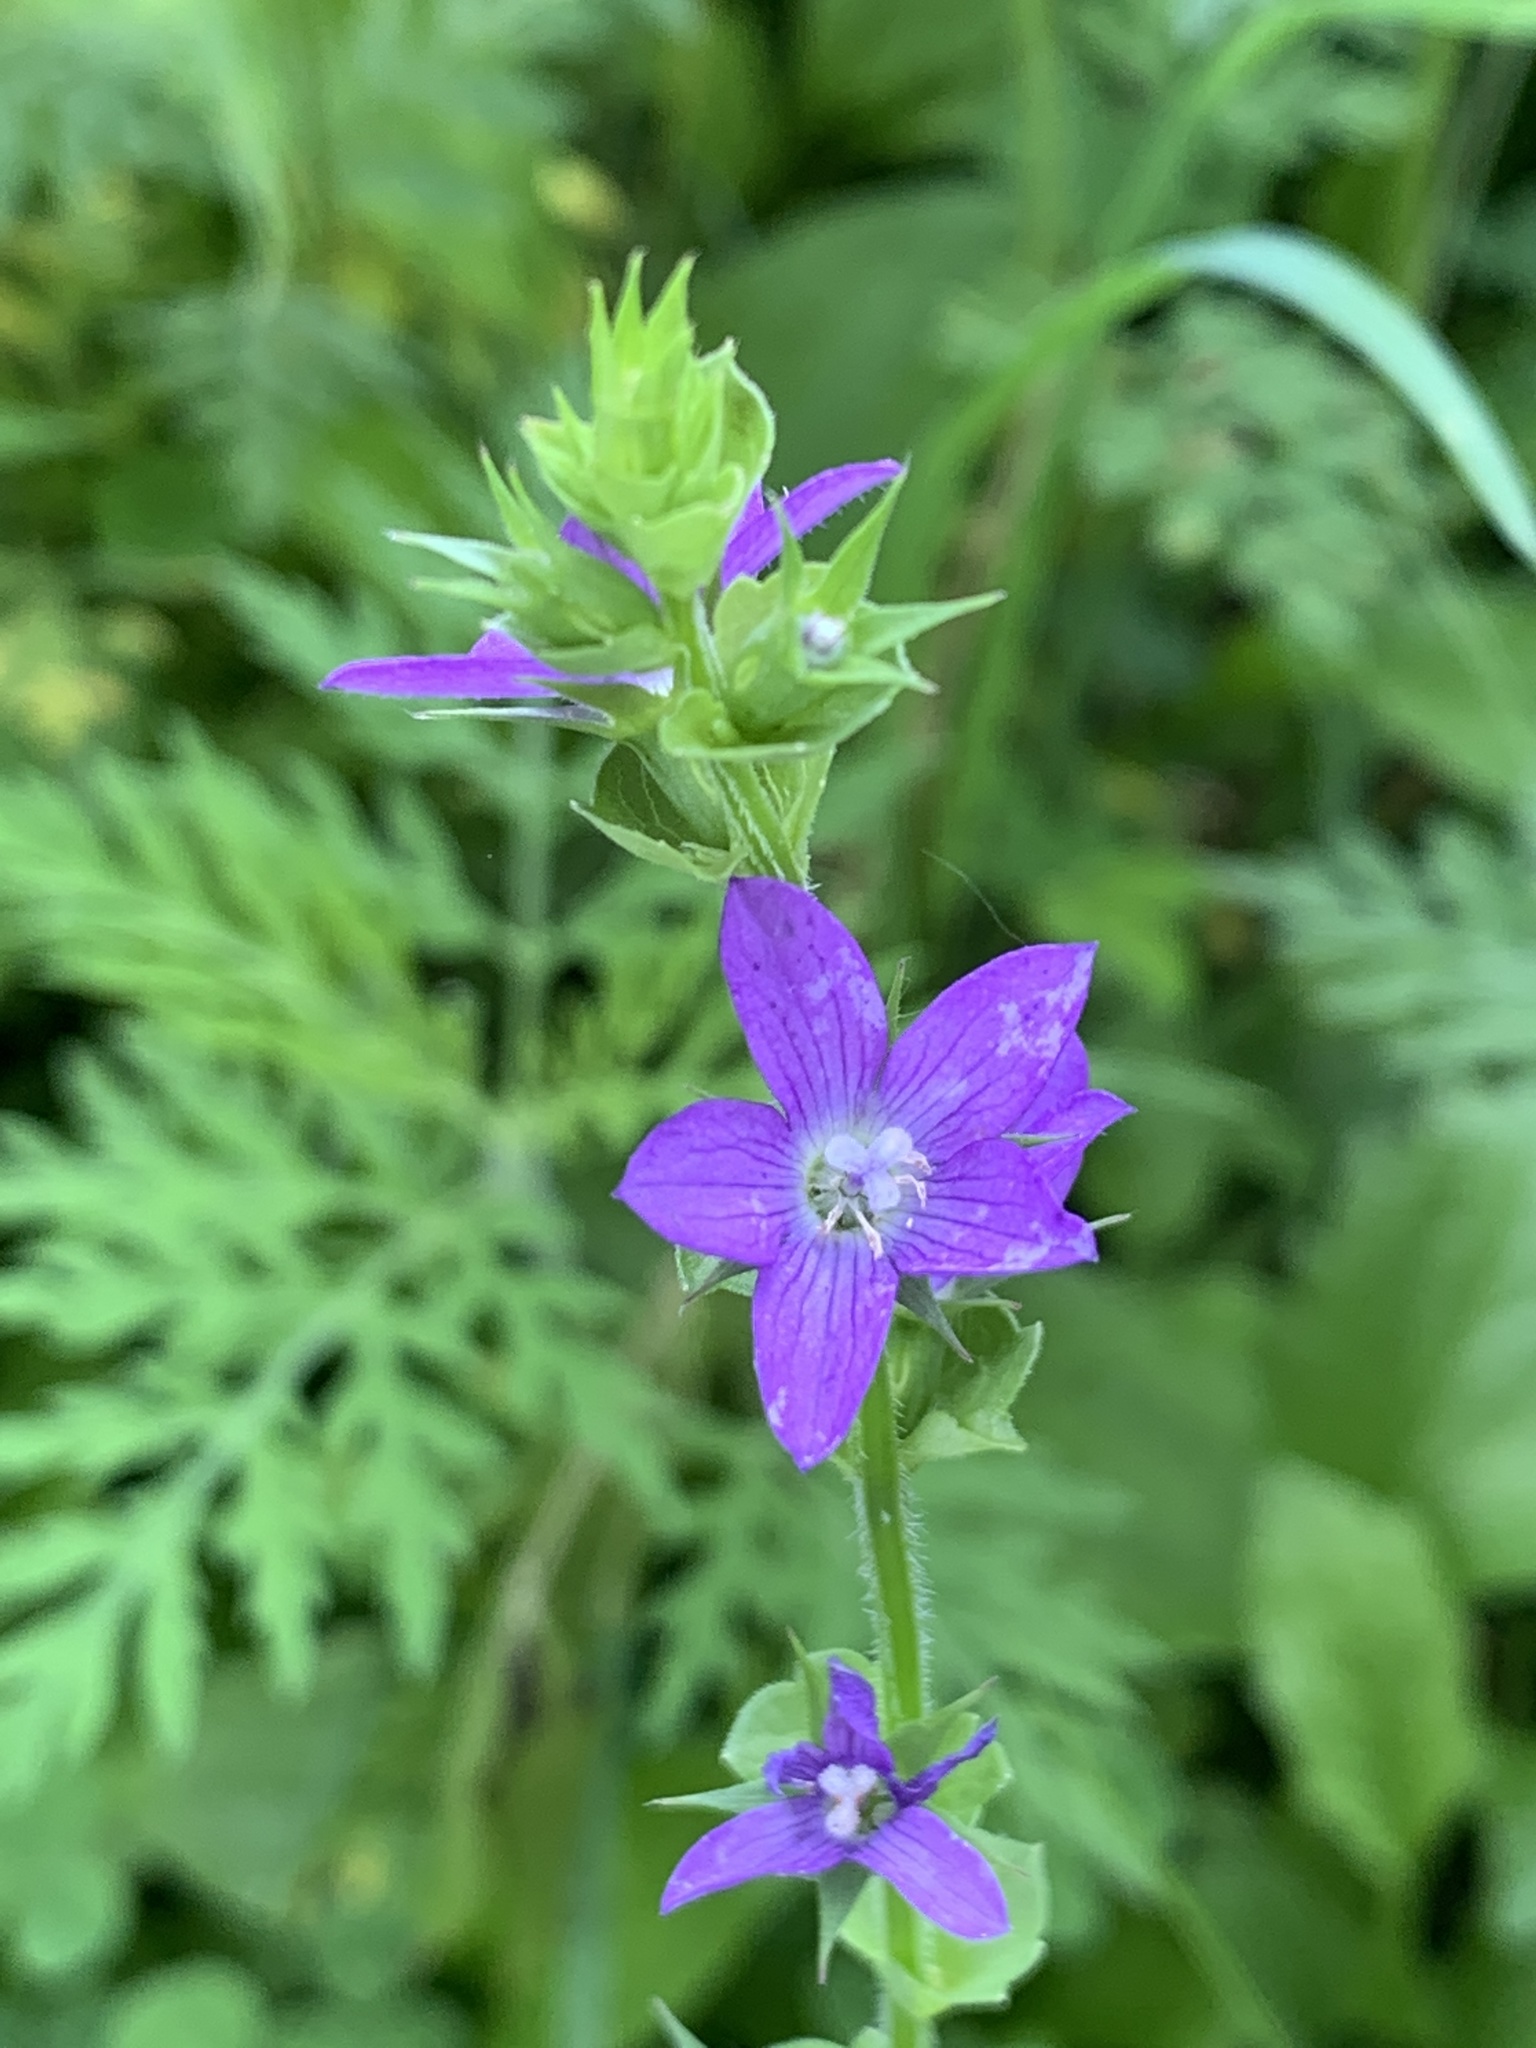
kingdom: Plantae
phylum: Tracheophyta
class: Magnoliopsida
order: Asterales
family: Campanulaceae
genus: Triodanis
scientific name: Triodanis perfoliata
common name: Clasping venus' looking-glass
